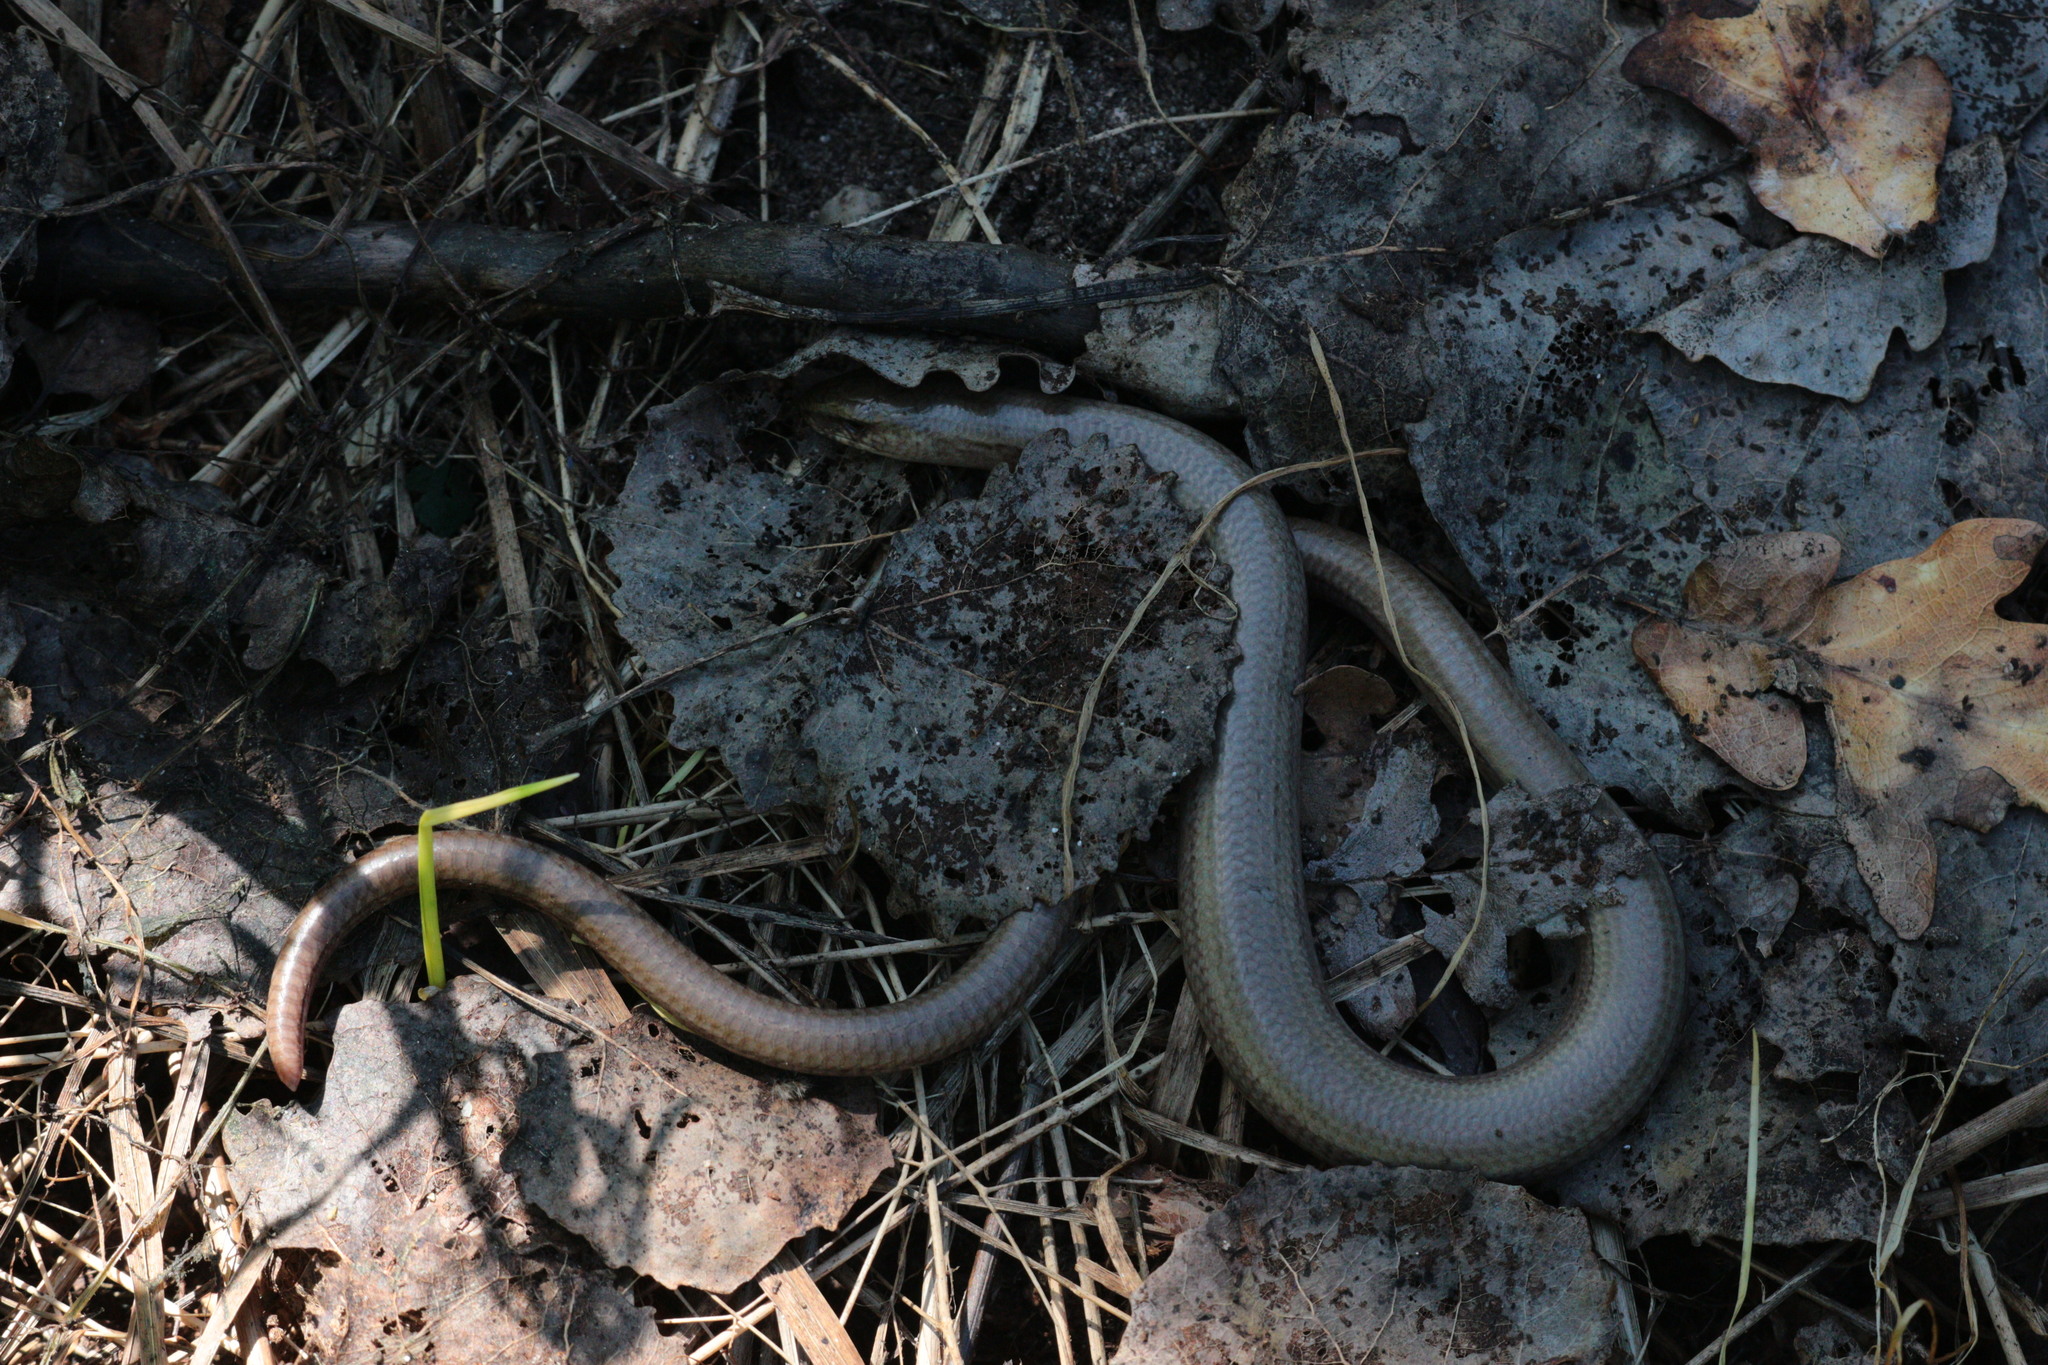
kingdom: Animalia
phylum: Chordata
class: Squamata
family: Anguidae
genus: Anguis
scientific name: Anguis fragilis
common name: Slow worm
